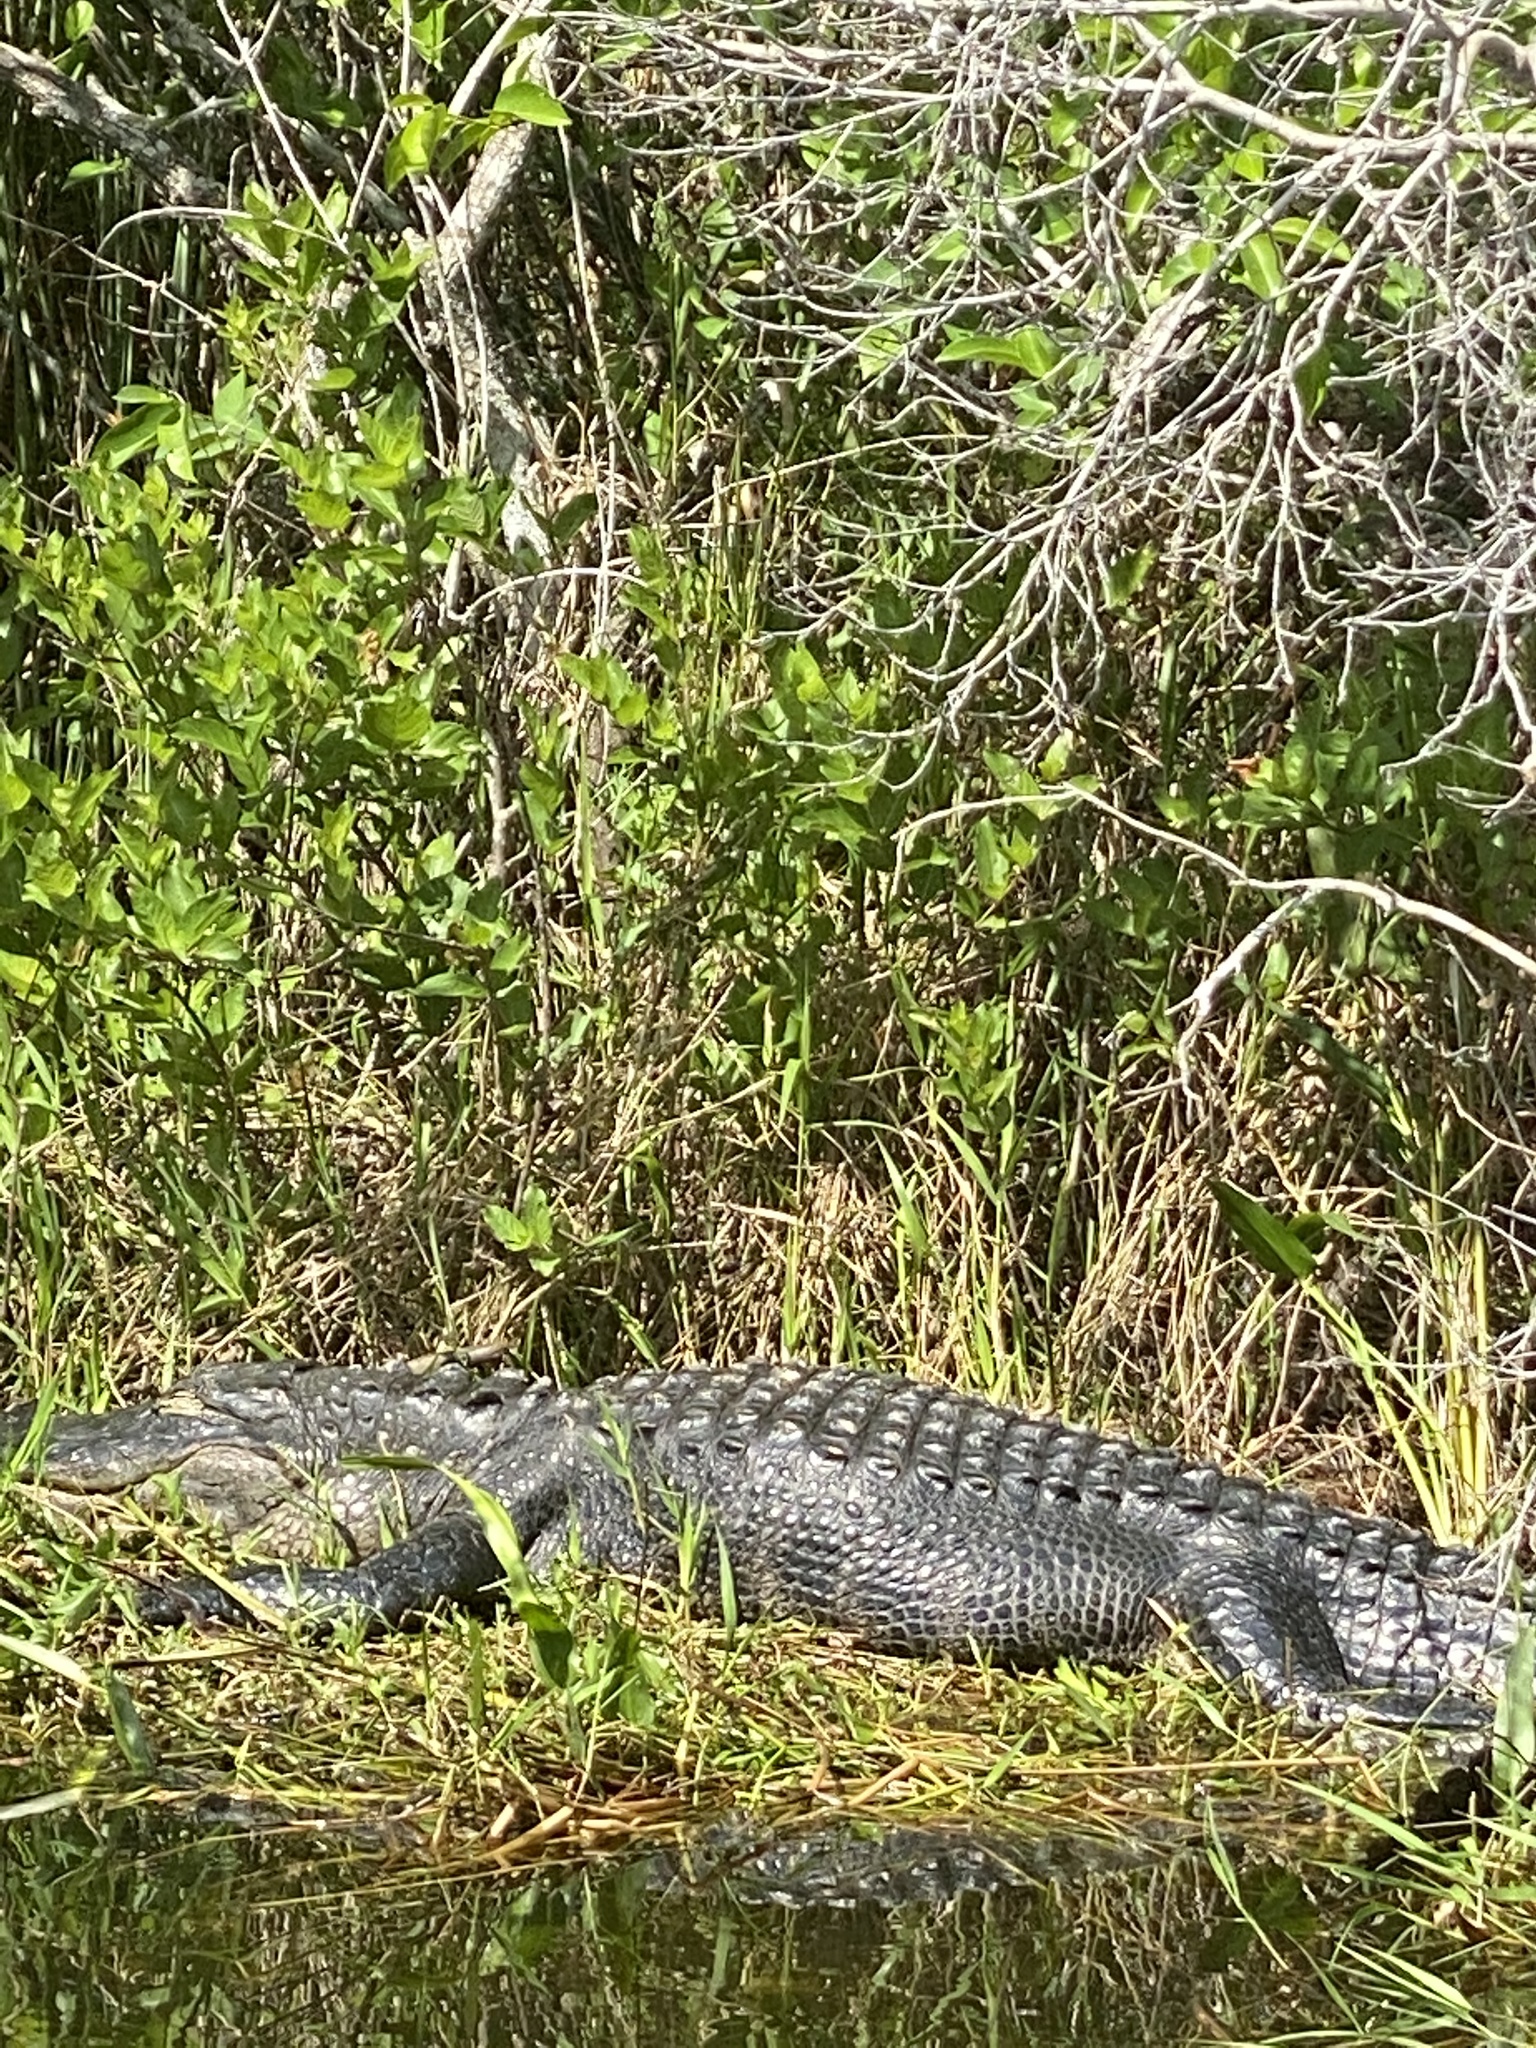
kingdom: Animalia
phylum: Chordata
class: Crocodylia
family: Alligatoridae
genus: Alligator
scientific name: Alligator mississippiensis
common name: American alligator
